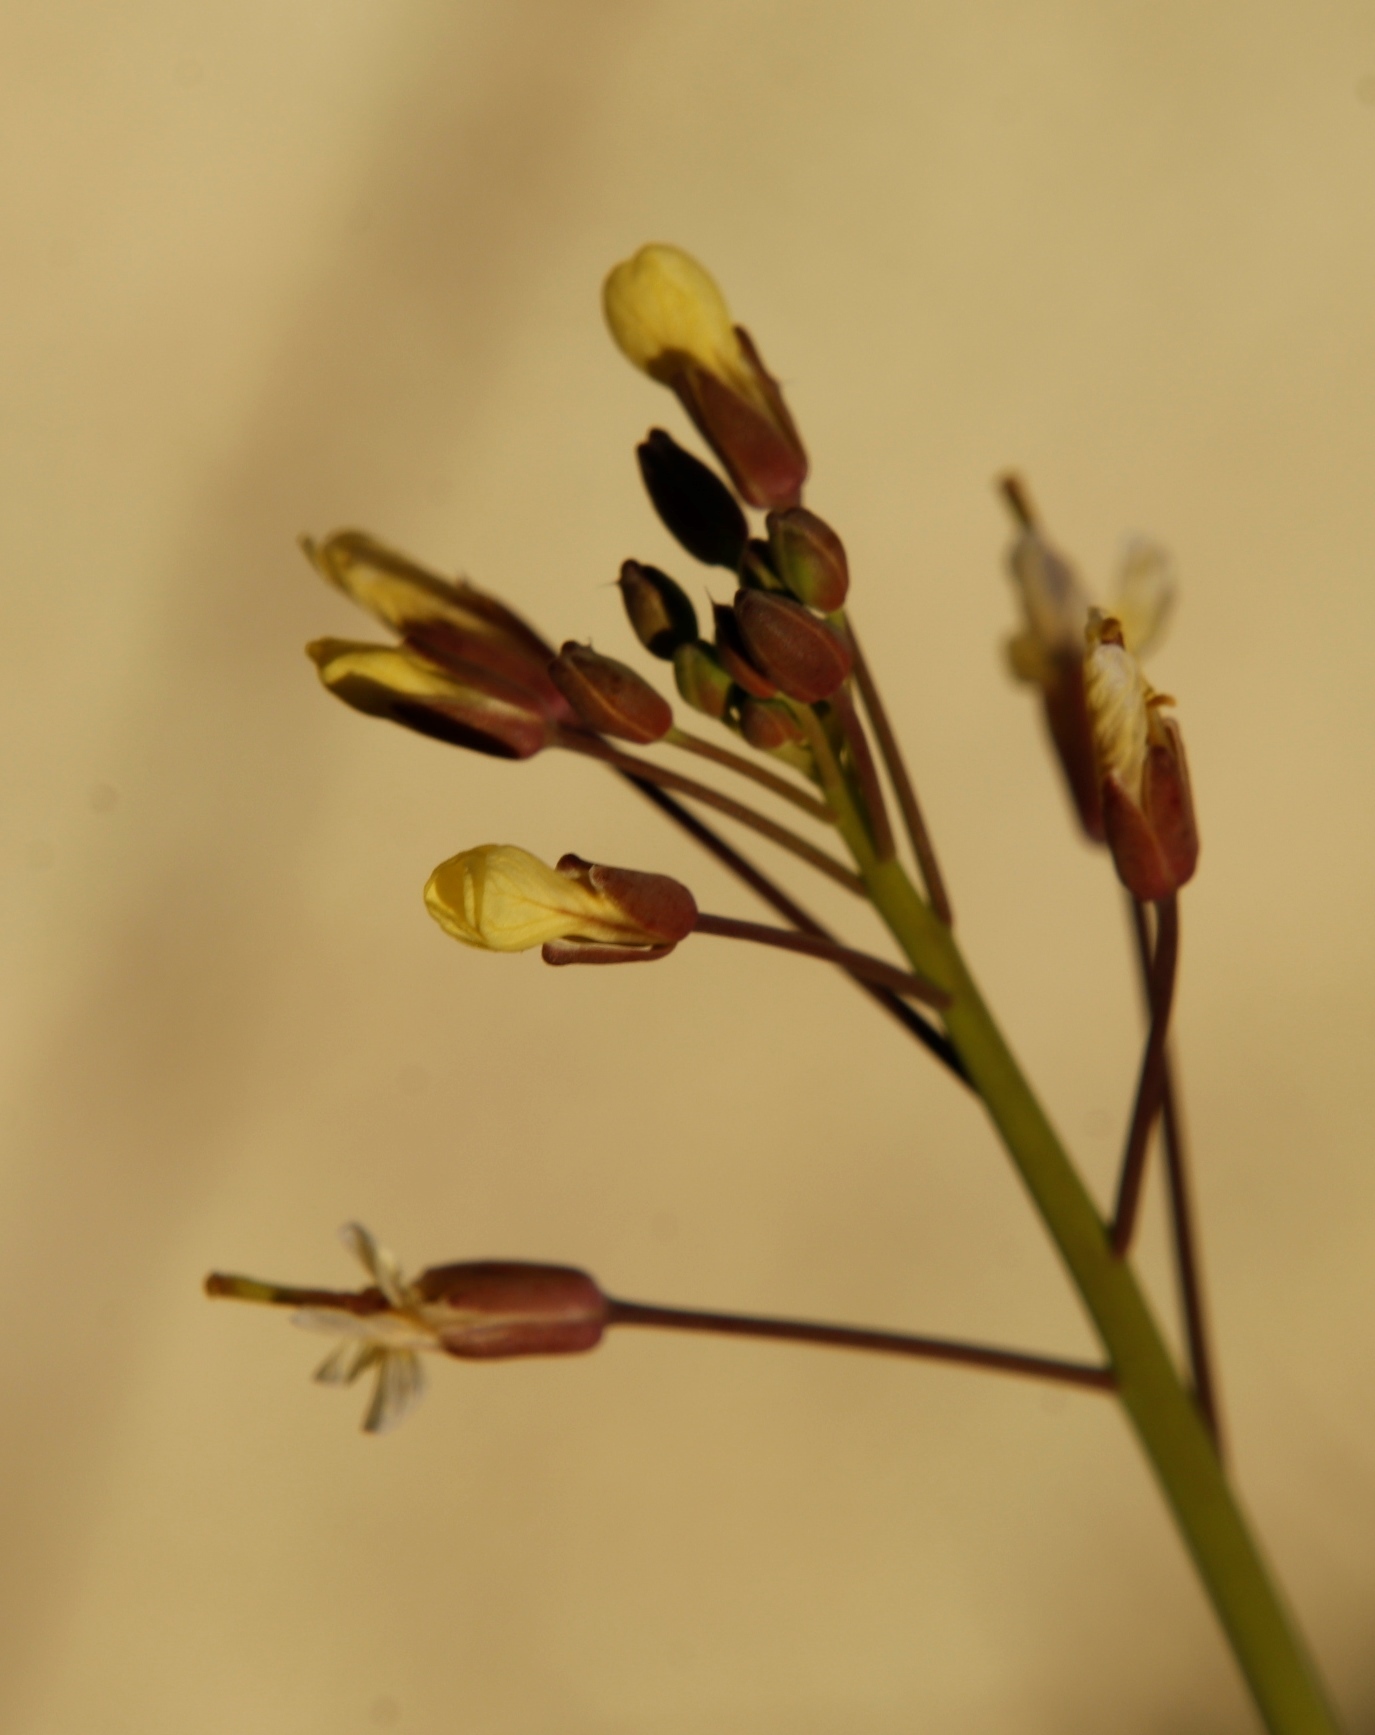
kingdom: Plantae
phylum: Tracheophyta
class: Magnoliopsida
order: Brassicales
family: Brassicaceae
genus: Brassica
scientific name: Brassica tournefortii
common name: Pale cabbage
